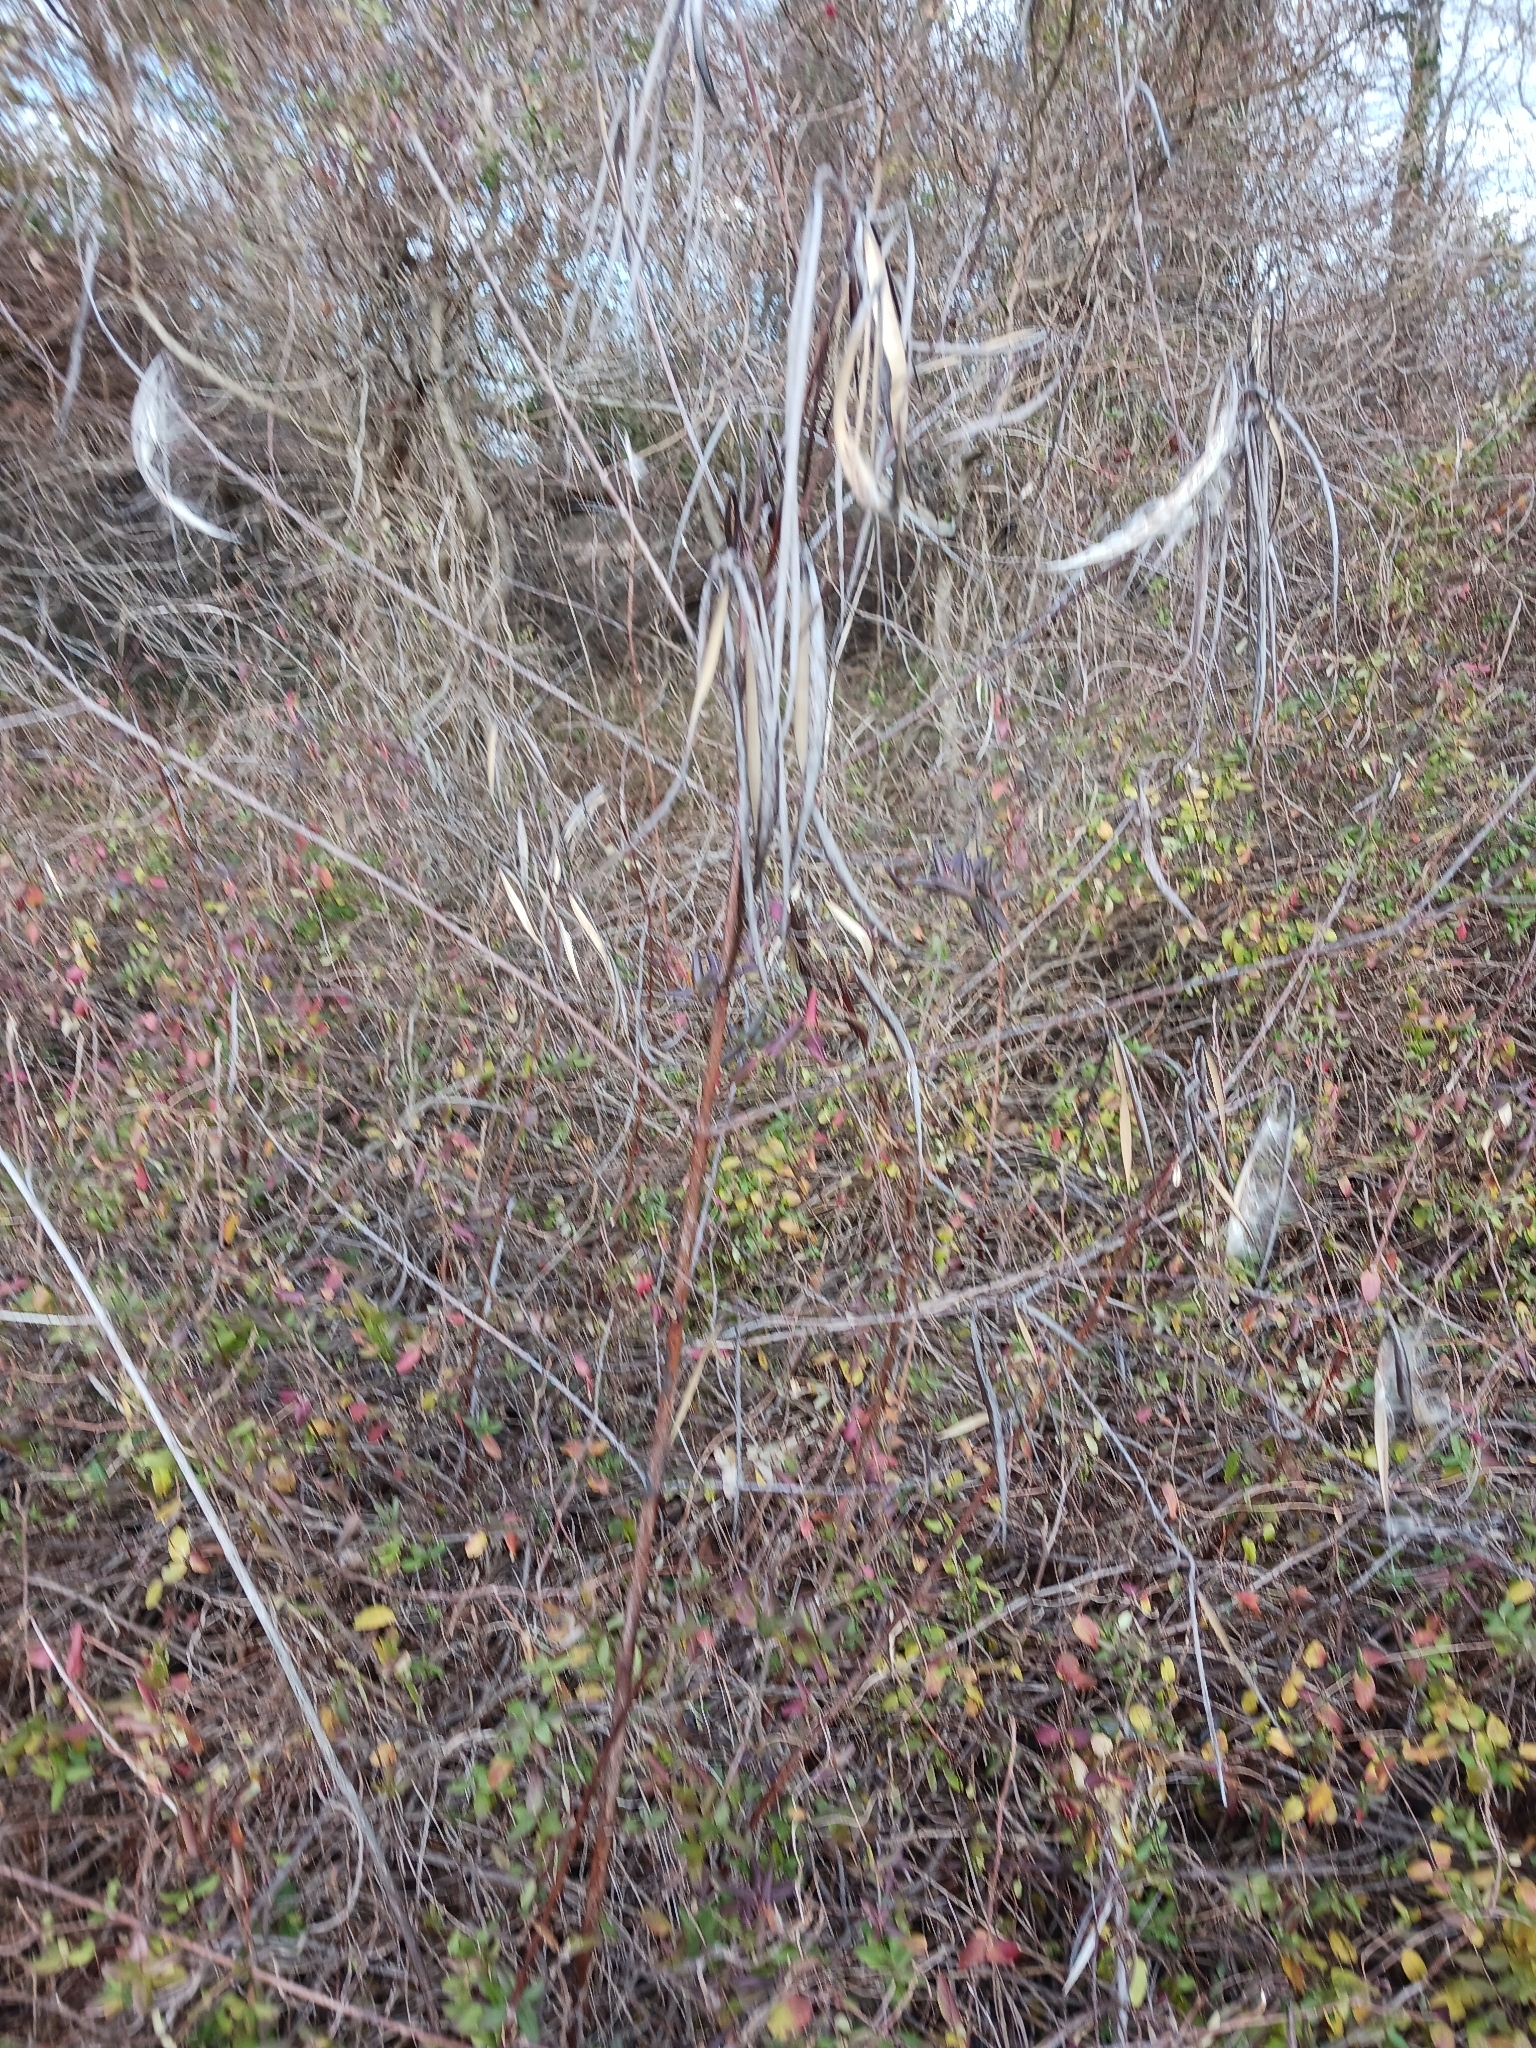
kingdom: Plantae
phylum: Tracheophyta
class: Magnoliopsida
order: Gentianales
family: Apocynaceae
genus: Apocynum
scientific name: Apocynum cannabinum
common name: Hemp dogbane
